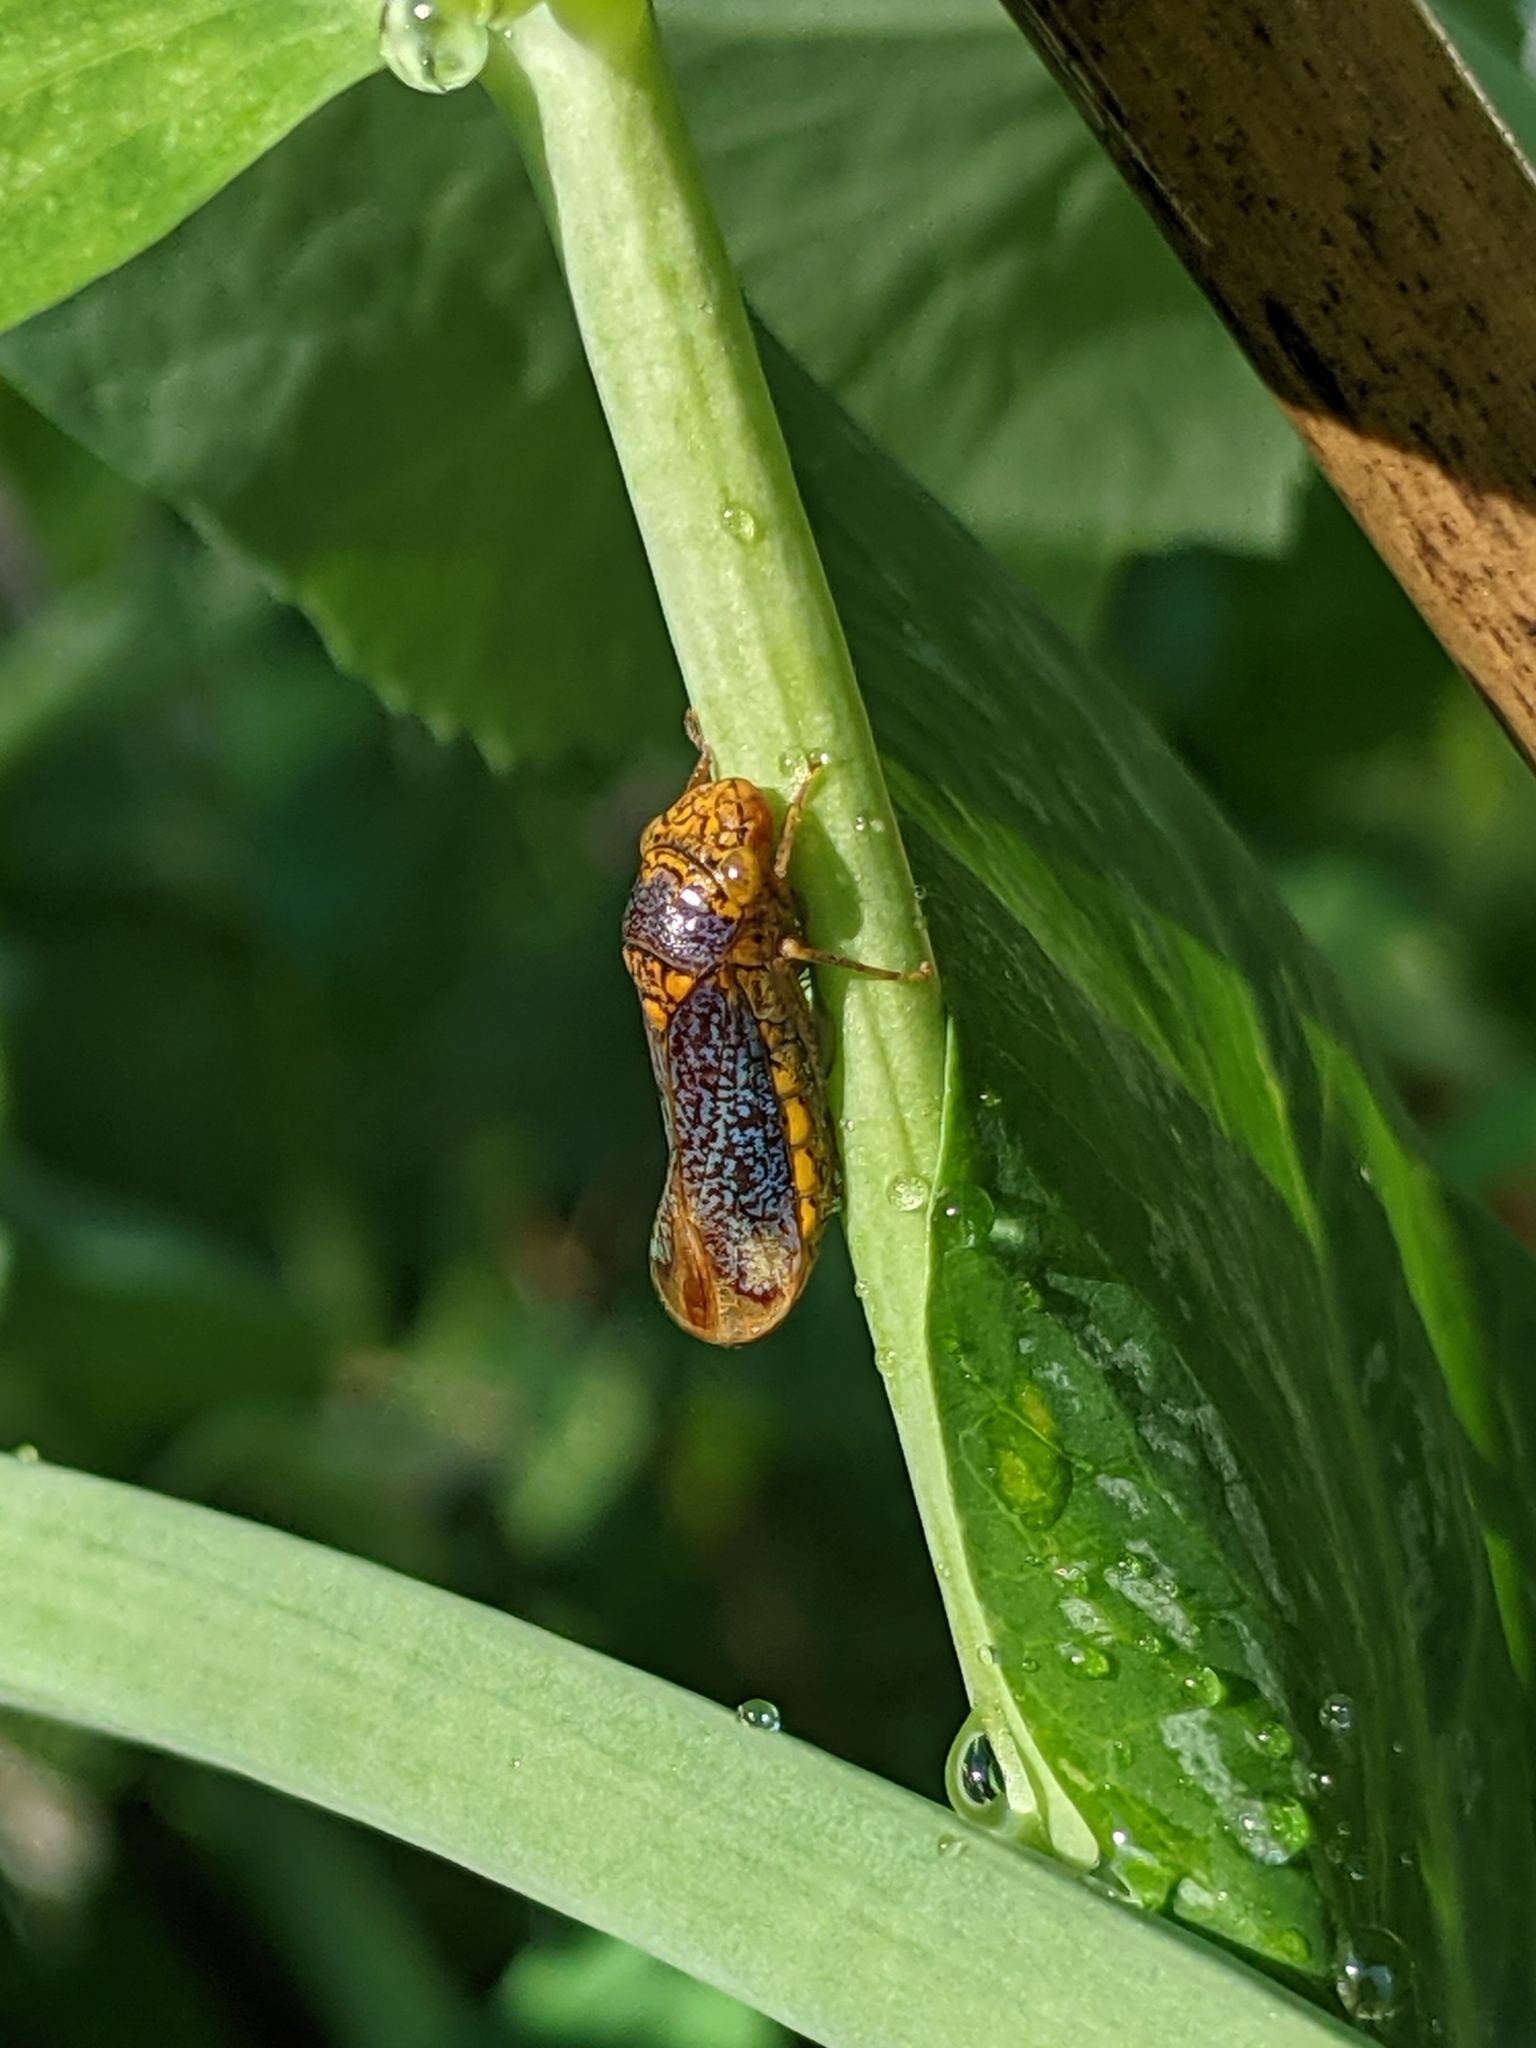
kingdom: Animalia
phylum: Arthropoda
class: Insecta
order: Hemiptera
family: Cicadellidae
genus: Oncometopia
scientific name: Oncometopia orbona
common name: Broad-headed sharpshooter
